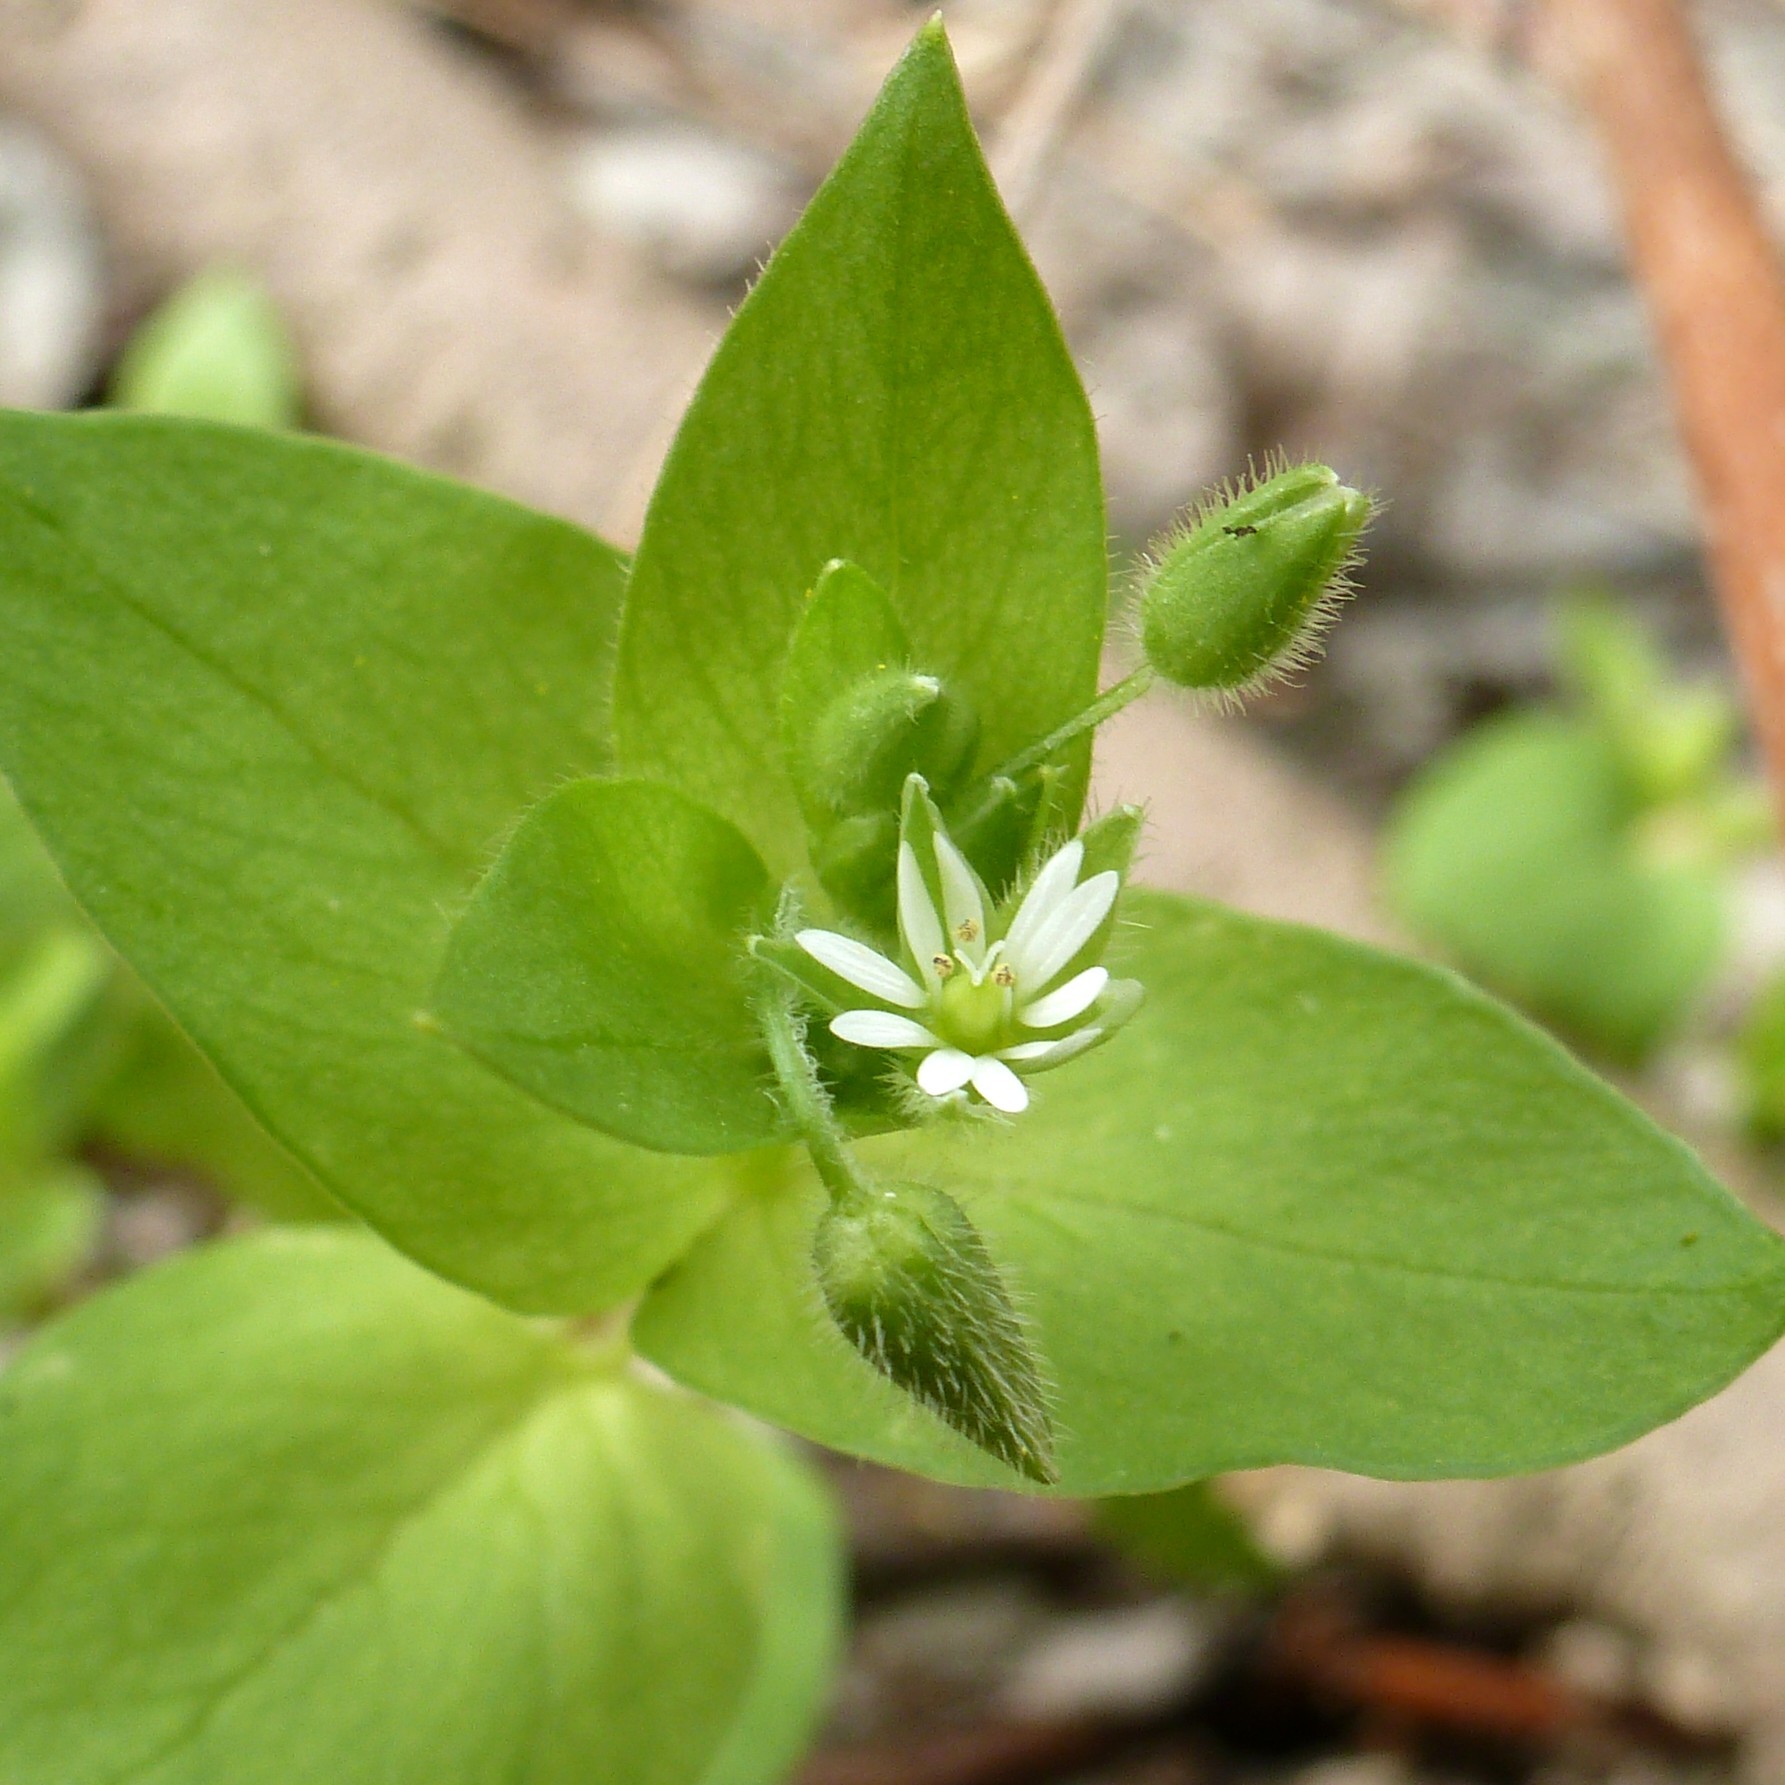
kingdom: Plantae
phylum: Tracheophyta
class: Magnoliopsida
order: Caryophyllales
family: Caryophyllaceae
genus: Stellaria
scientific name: Stellaria media
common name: Common chickweed
